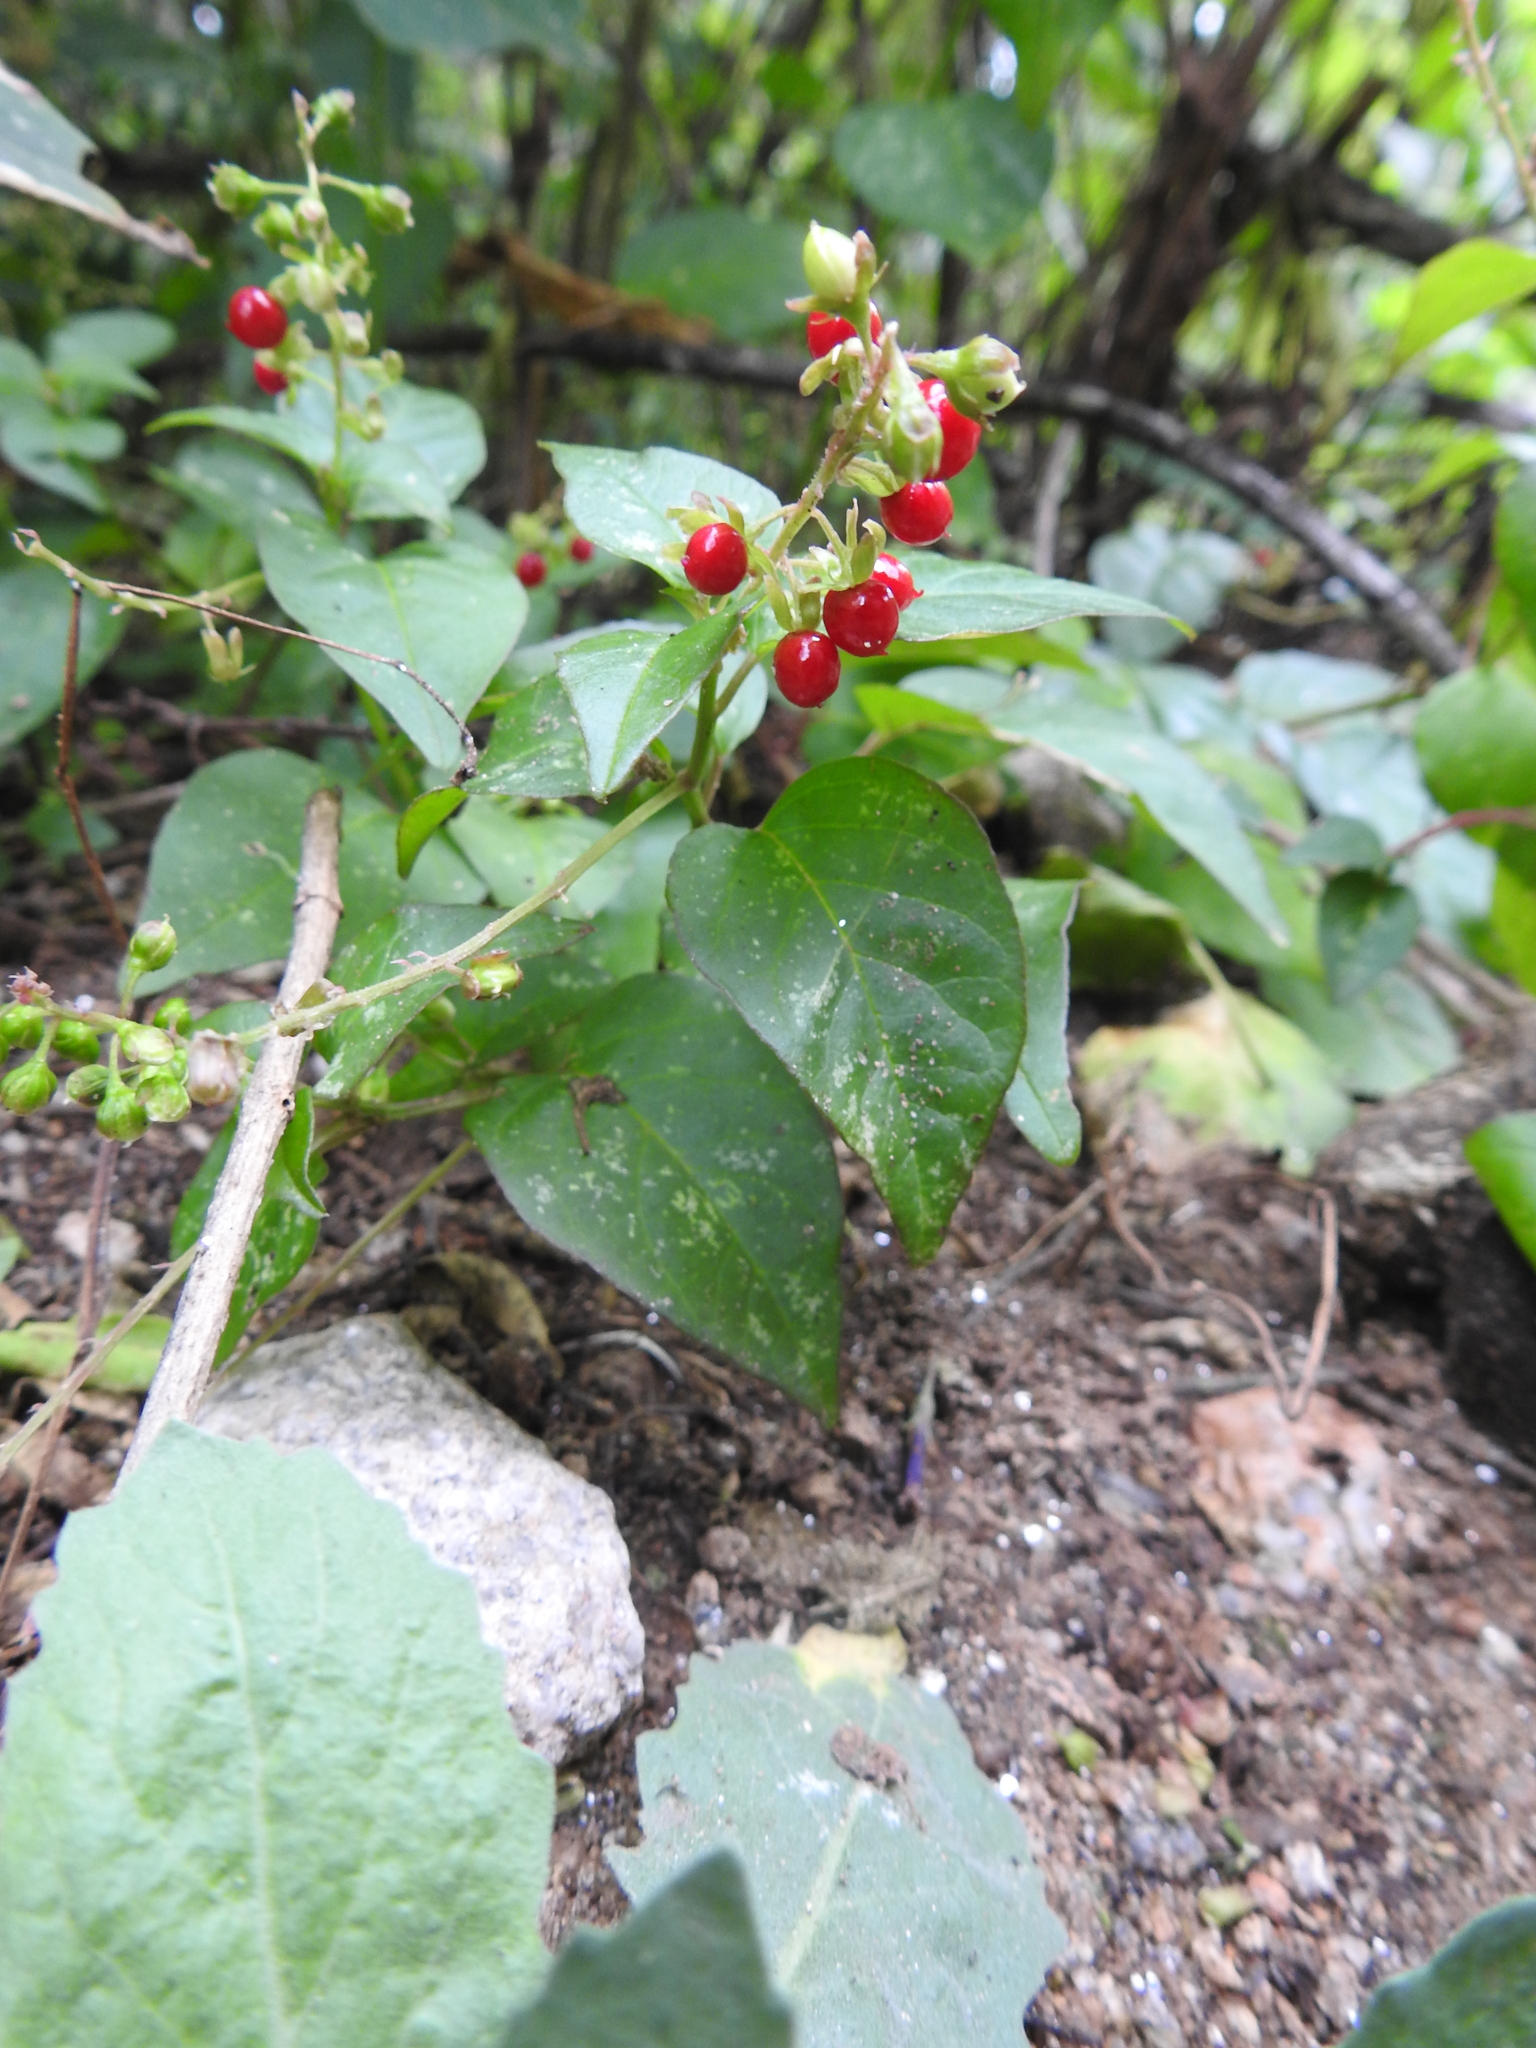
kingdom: Plantae
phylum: Tracheophyta
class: Magnoliopsida
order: Caryophyllales
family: Phytolaccaceae
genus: Rivina
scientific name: Rivina humilis
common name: Rougeplant
